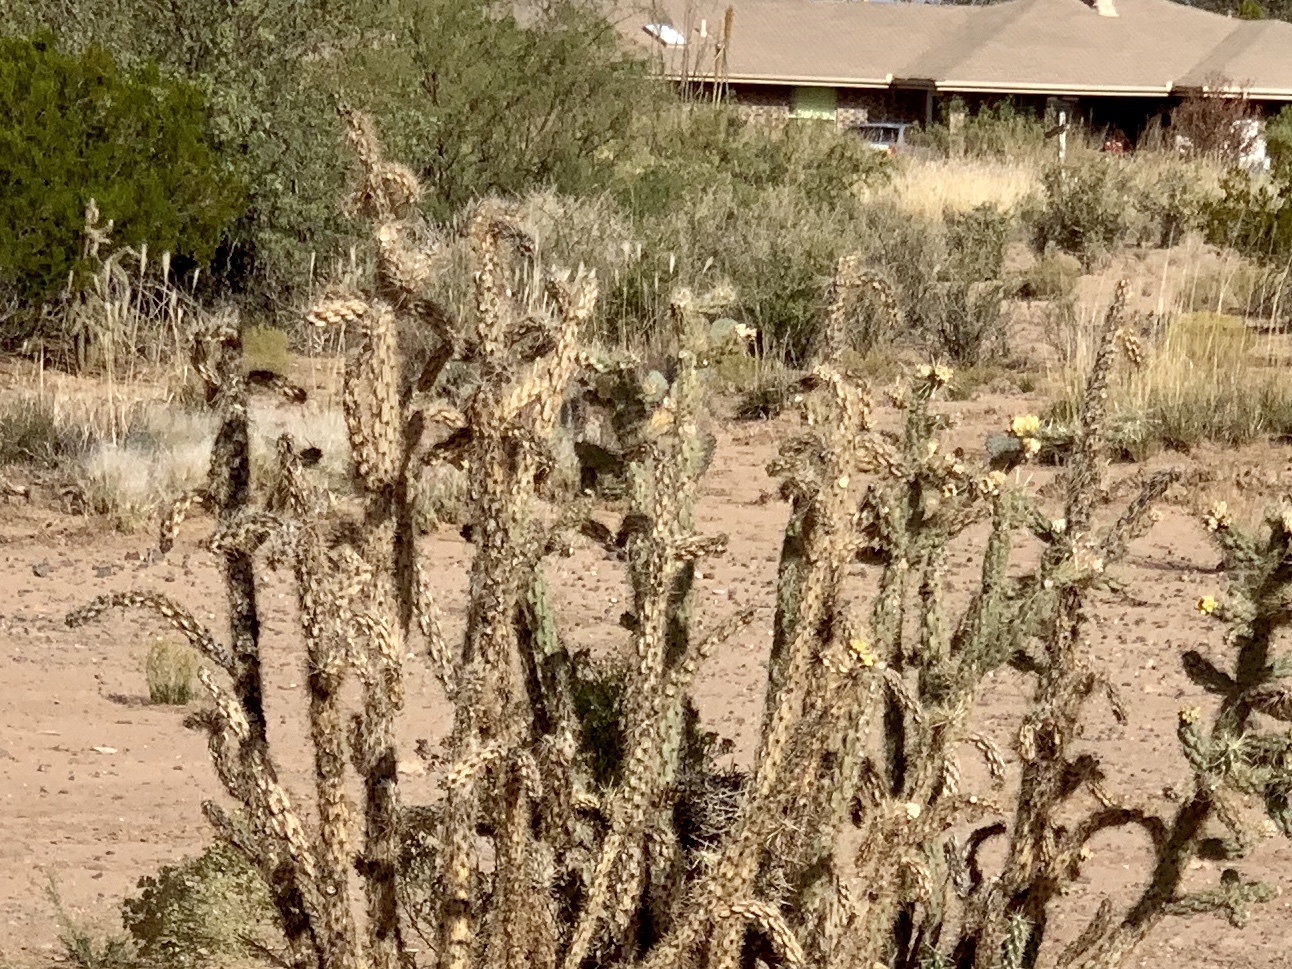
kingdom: Plantae
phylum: Tracheophyta
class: Magnoliopsida
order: Caryophyllales
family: Cactaceae
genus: Cylindropuntia
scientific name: Cylindropuntia imbricata
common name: Candelabrum cactus
